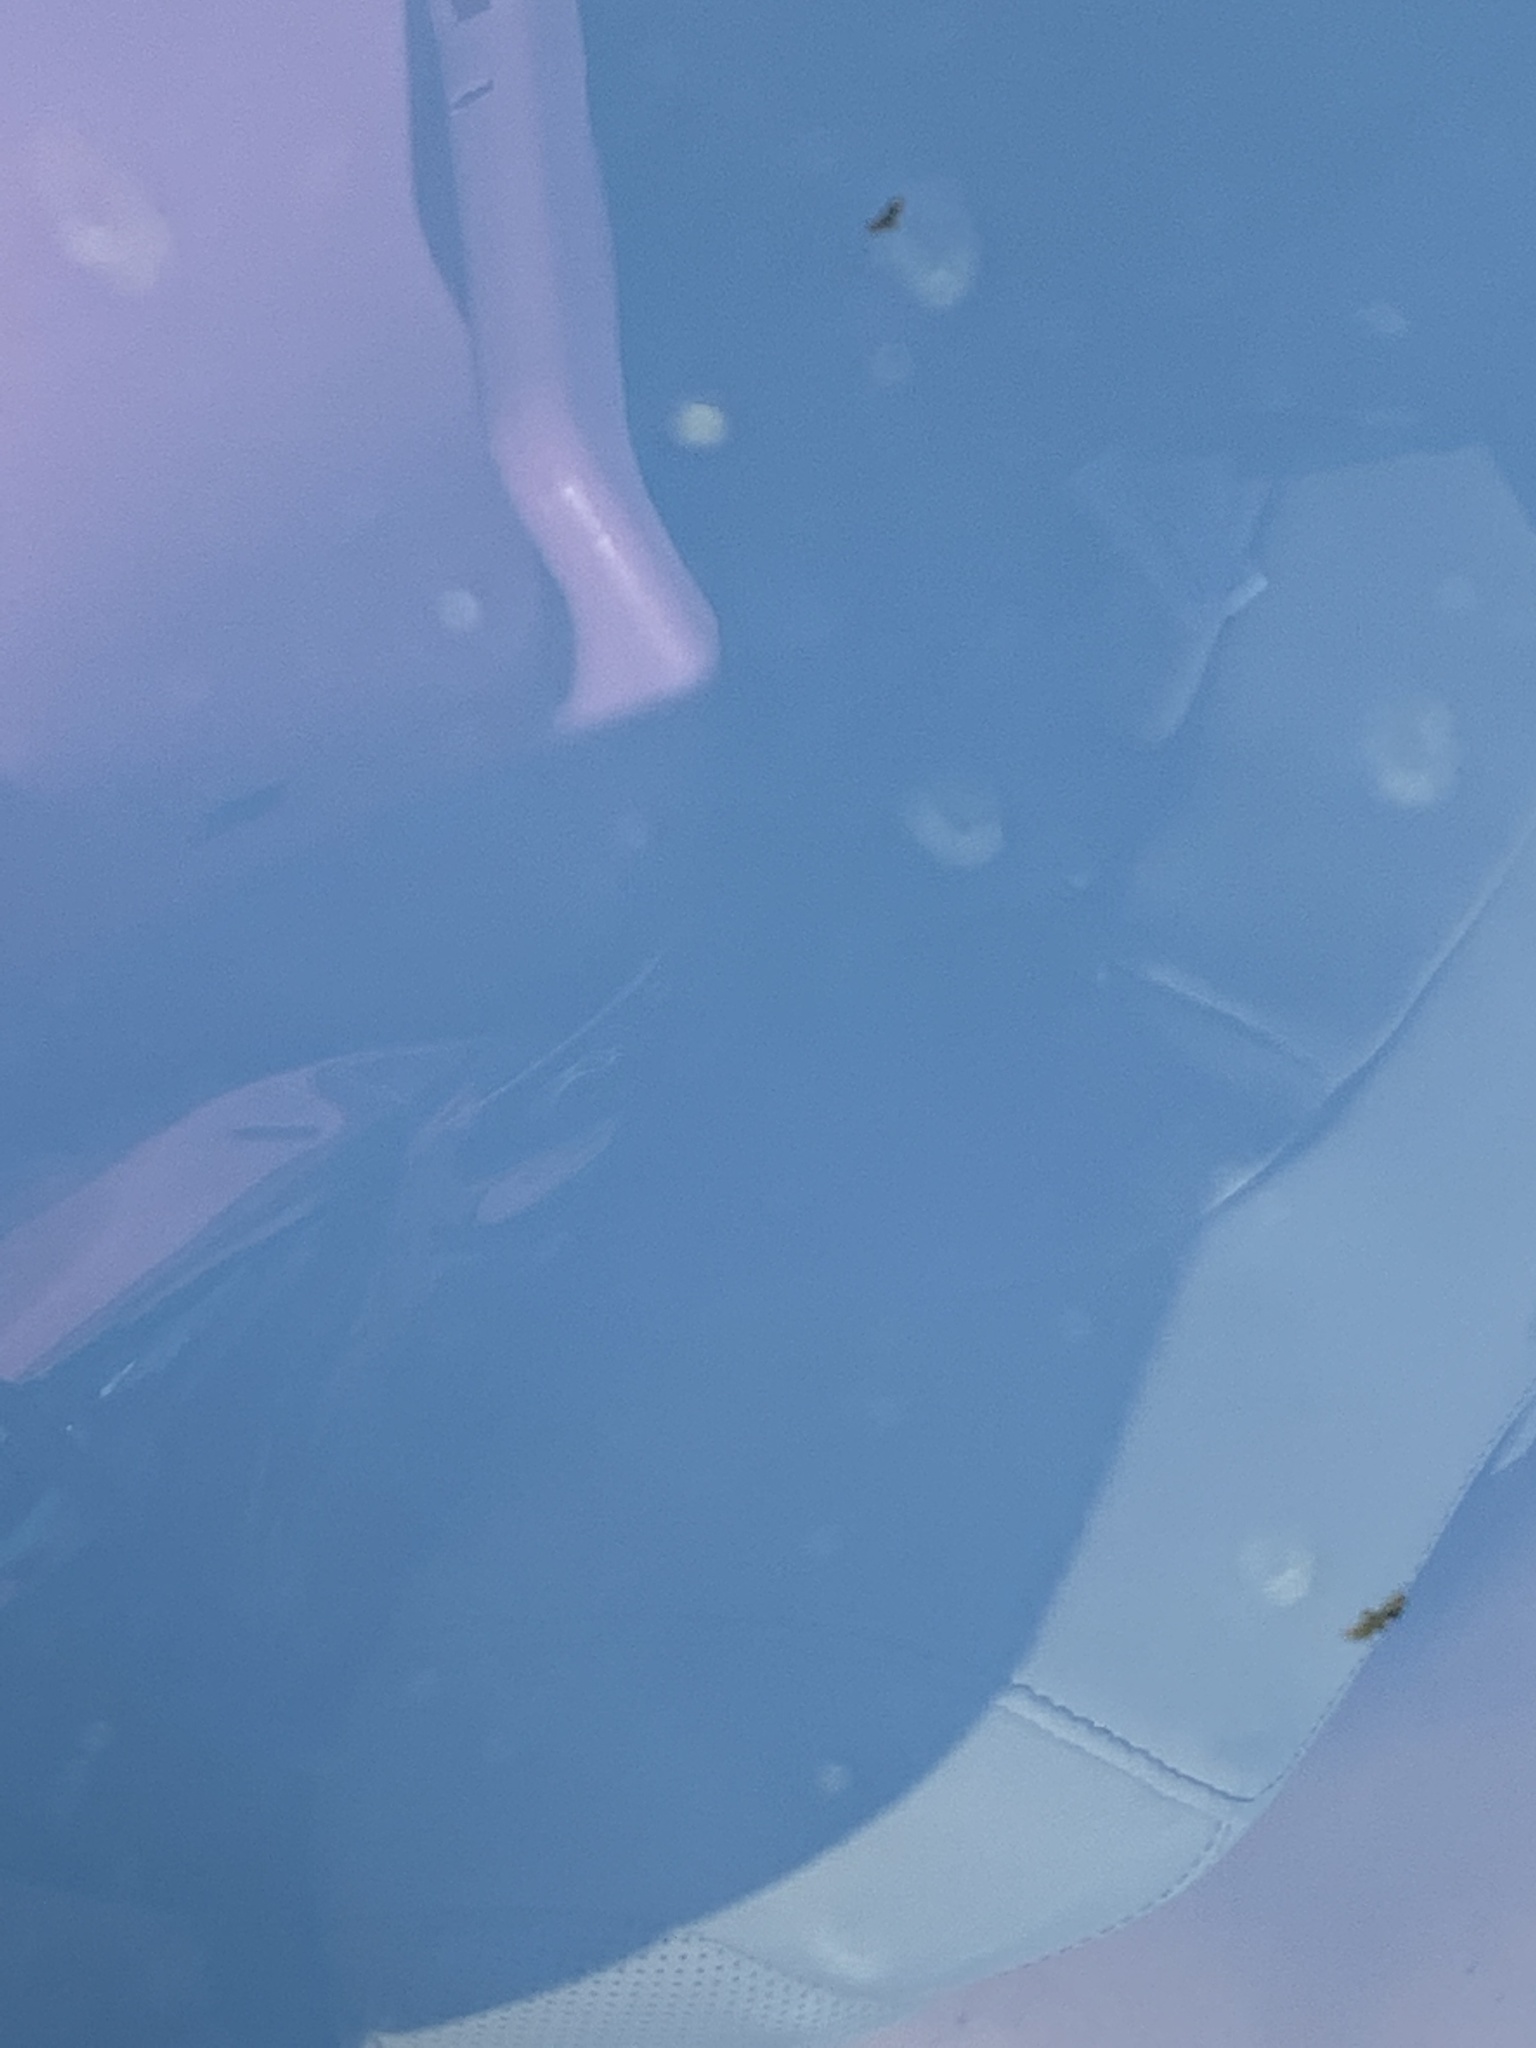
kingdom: Animalia
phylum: Chordata
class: Aves
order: Accipitriformes
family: Cathartidae
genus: Cathartes
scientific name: Cathartes aura
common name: Turkey vulture
